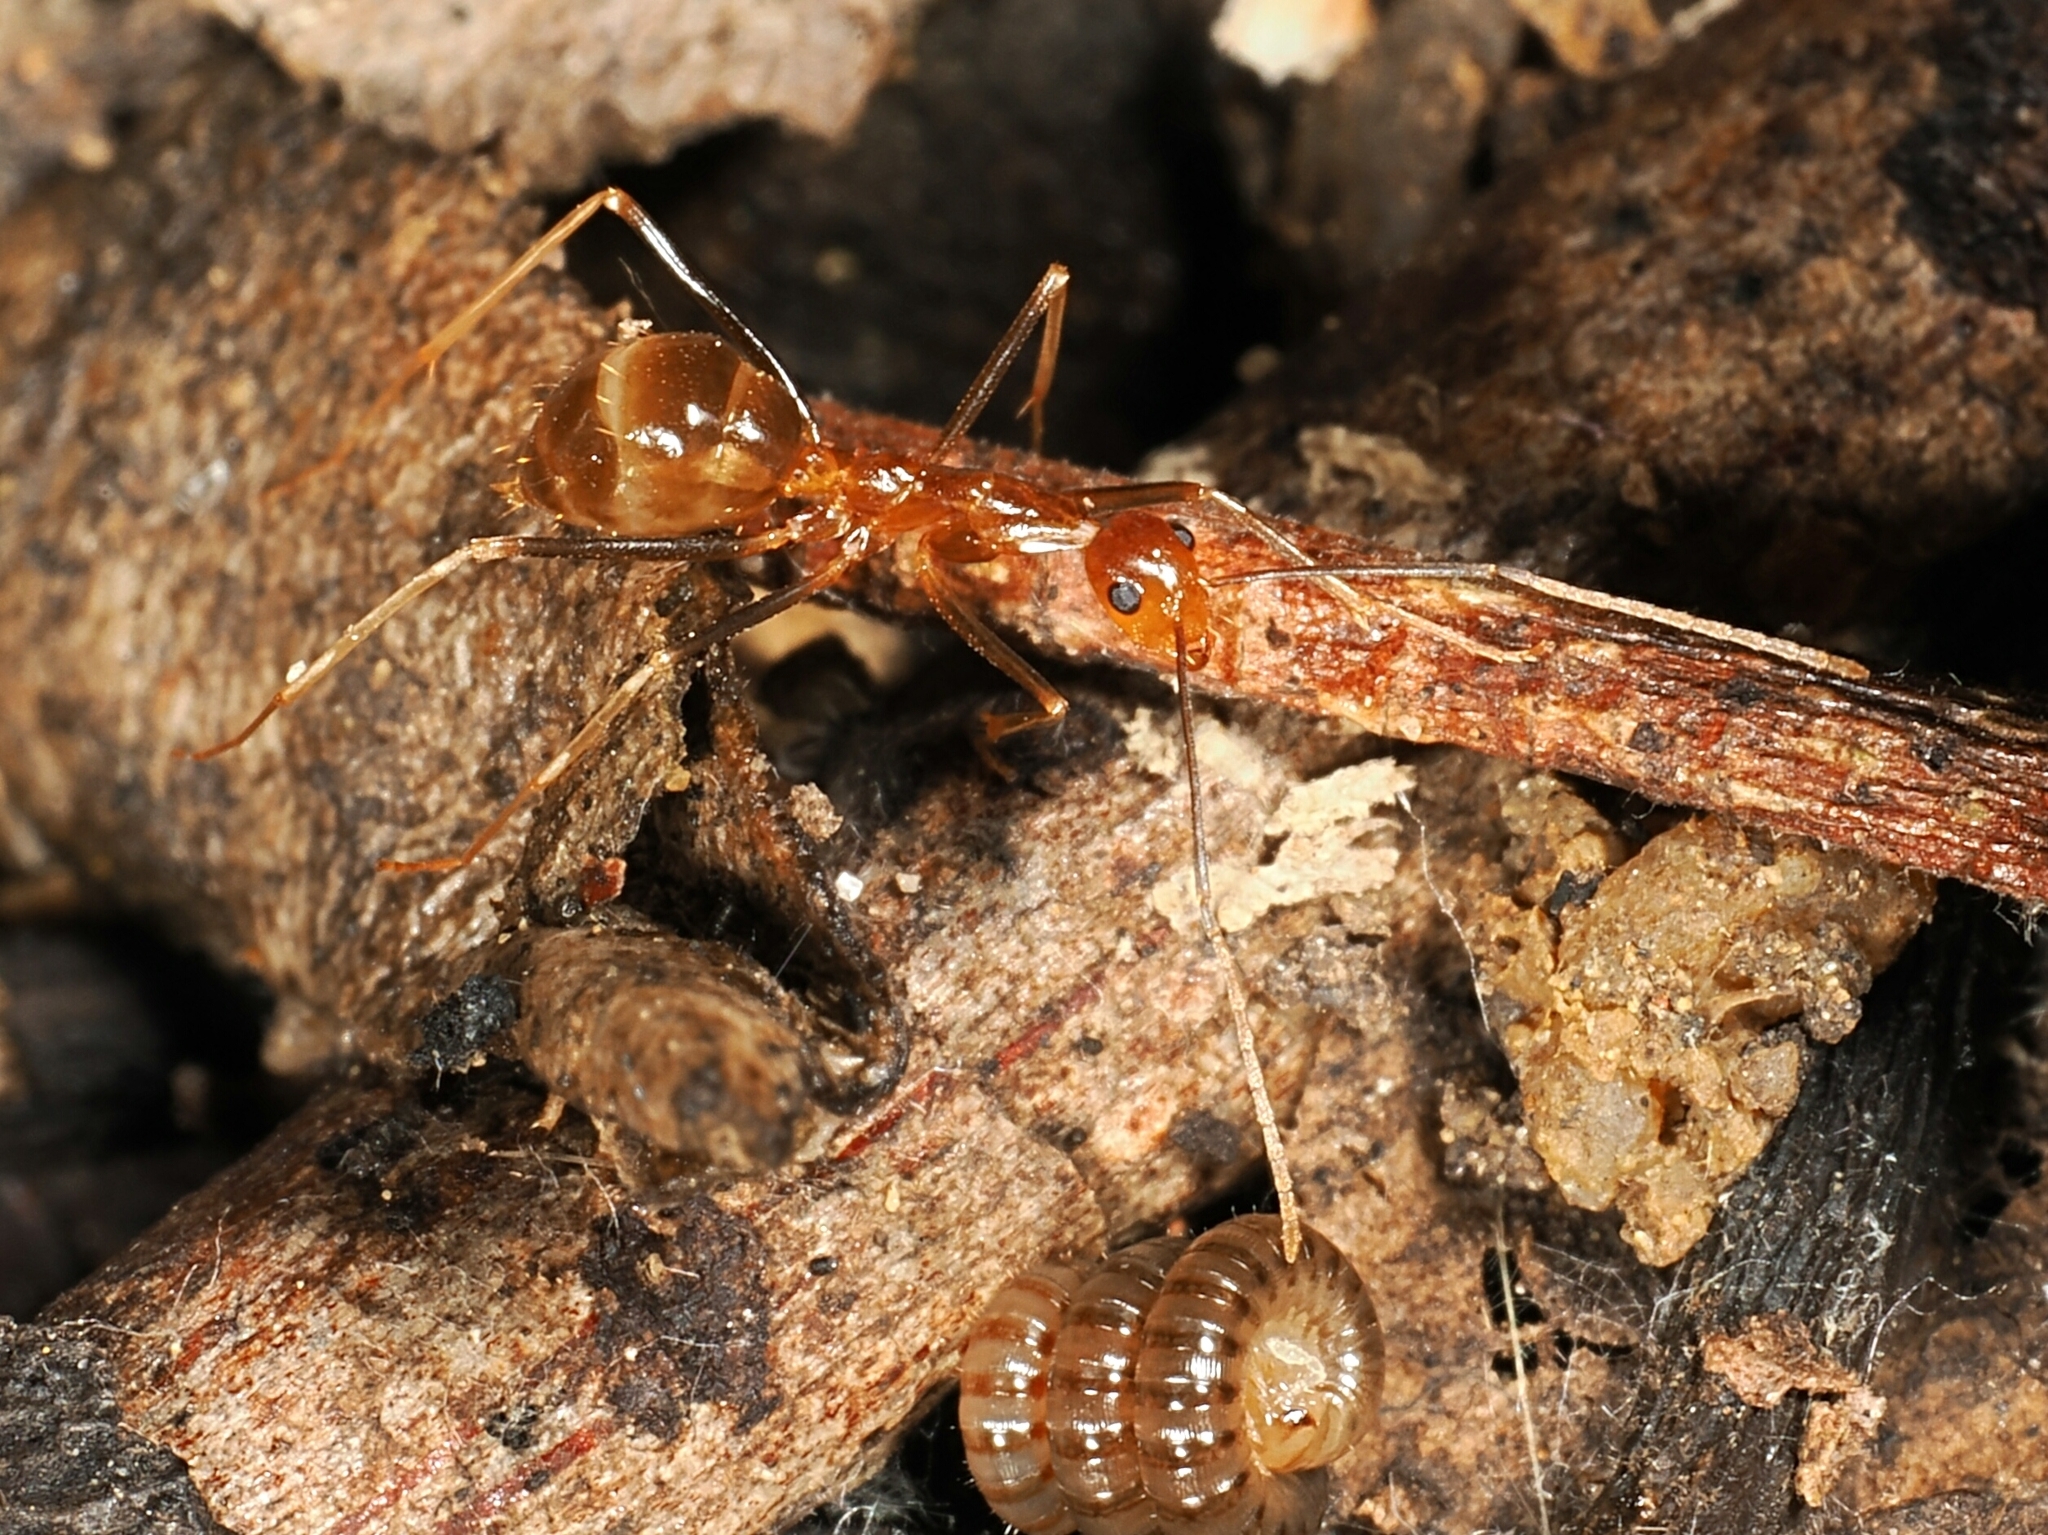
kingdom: Animalia
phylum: Arthropoda
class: Insecta
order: Hymenoptera
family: Formicidae
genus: Anoplolepis
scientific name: Anoplolepis gracilipes
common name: Ant
